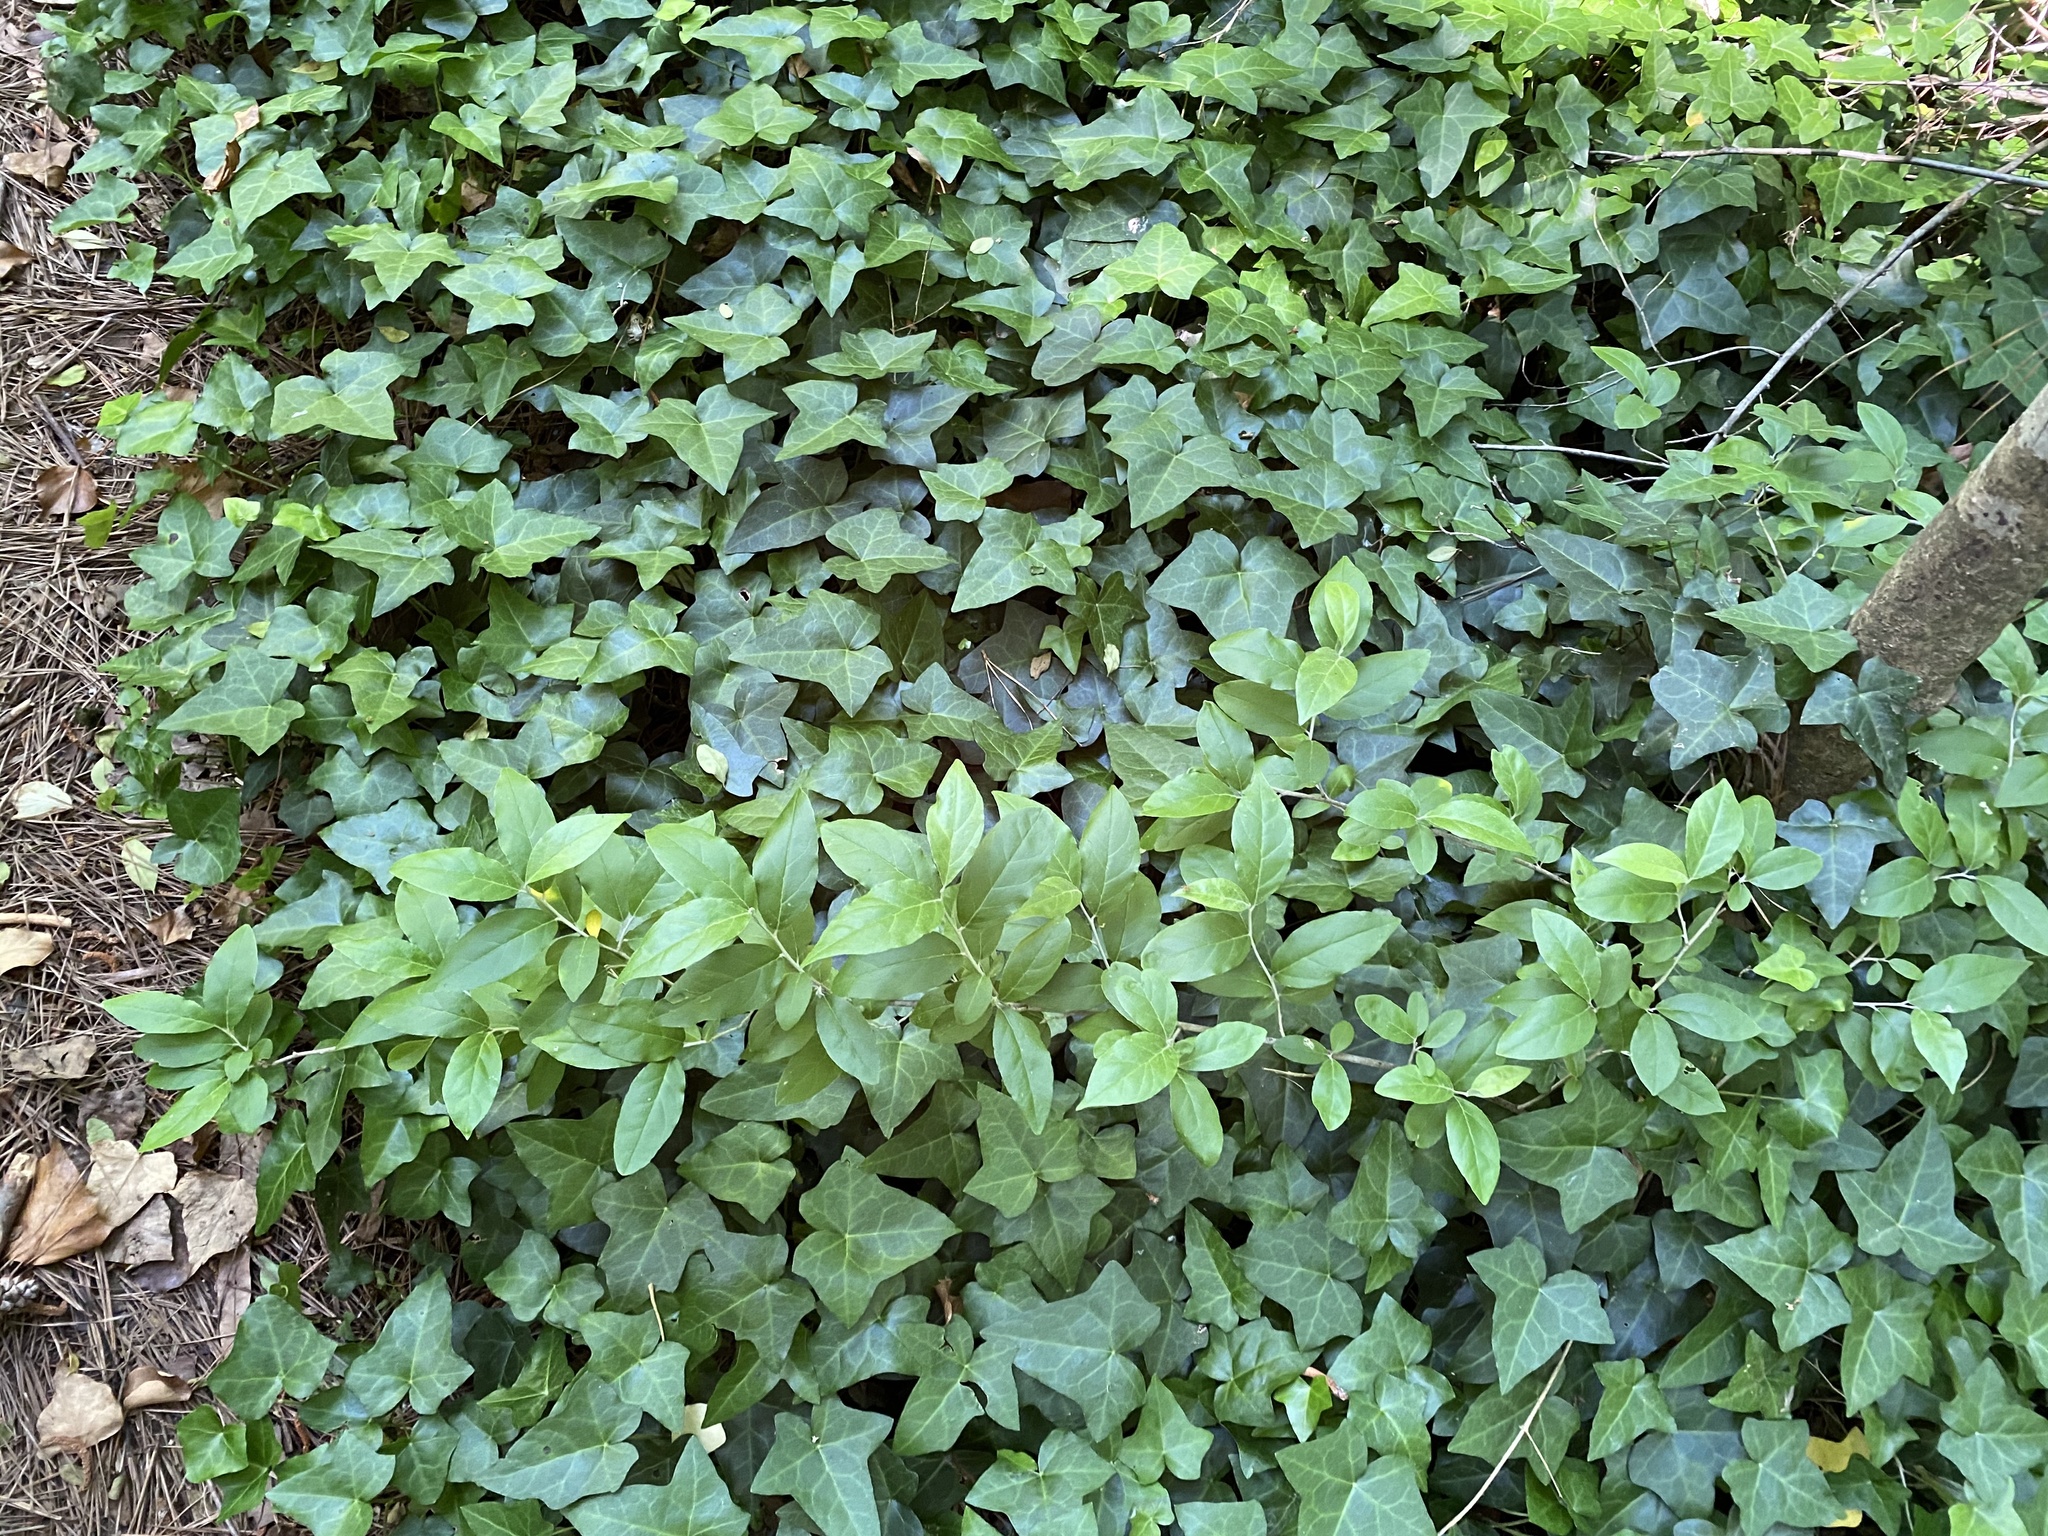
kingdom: Plantae
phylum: Tracheophyta
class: Magnoliopsida
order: Rosales
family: Elaeagnaceae
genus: Elaeagnus
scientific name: Elaeagnus umbellata
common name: Autumn olive
